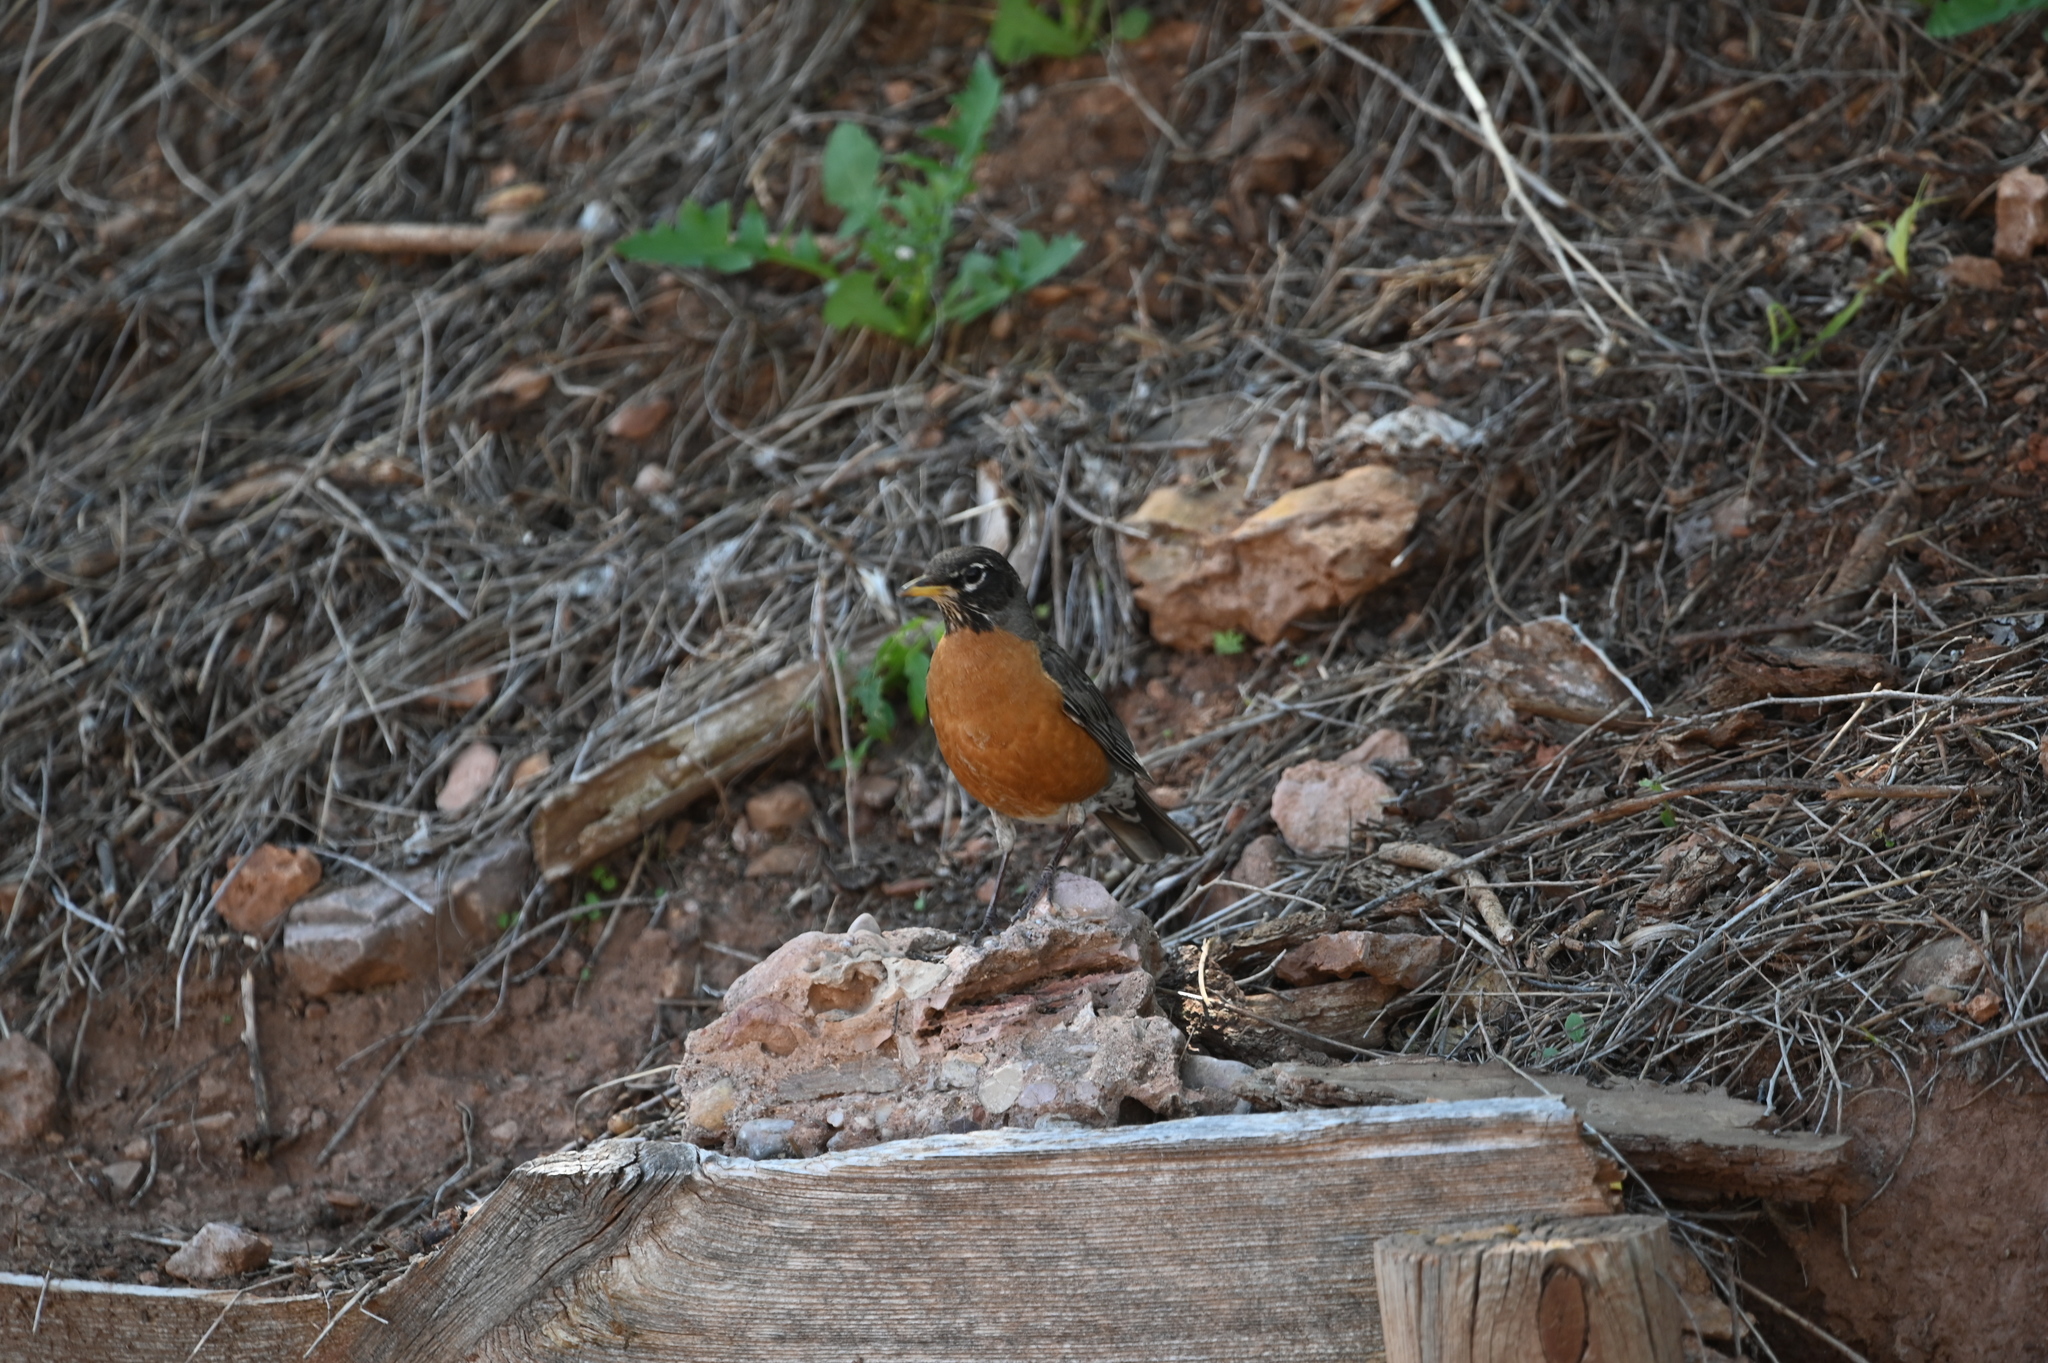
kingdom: Animalia
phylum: Chordata
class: Aves
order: Passeriformes
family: Turdidae
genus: Turdus
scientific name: Turdus migratorius
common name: American robin
